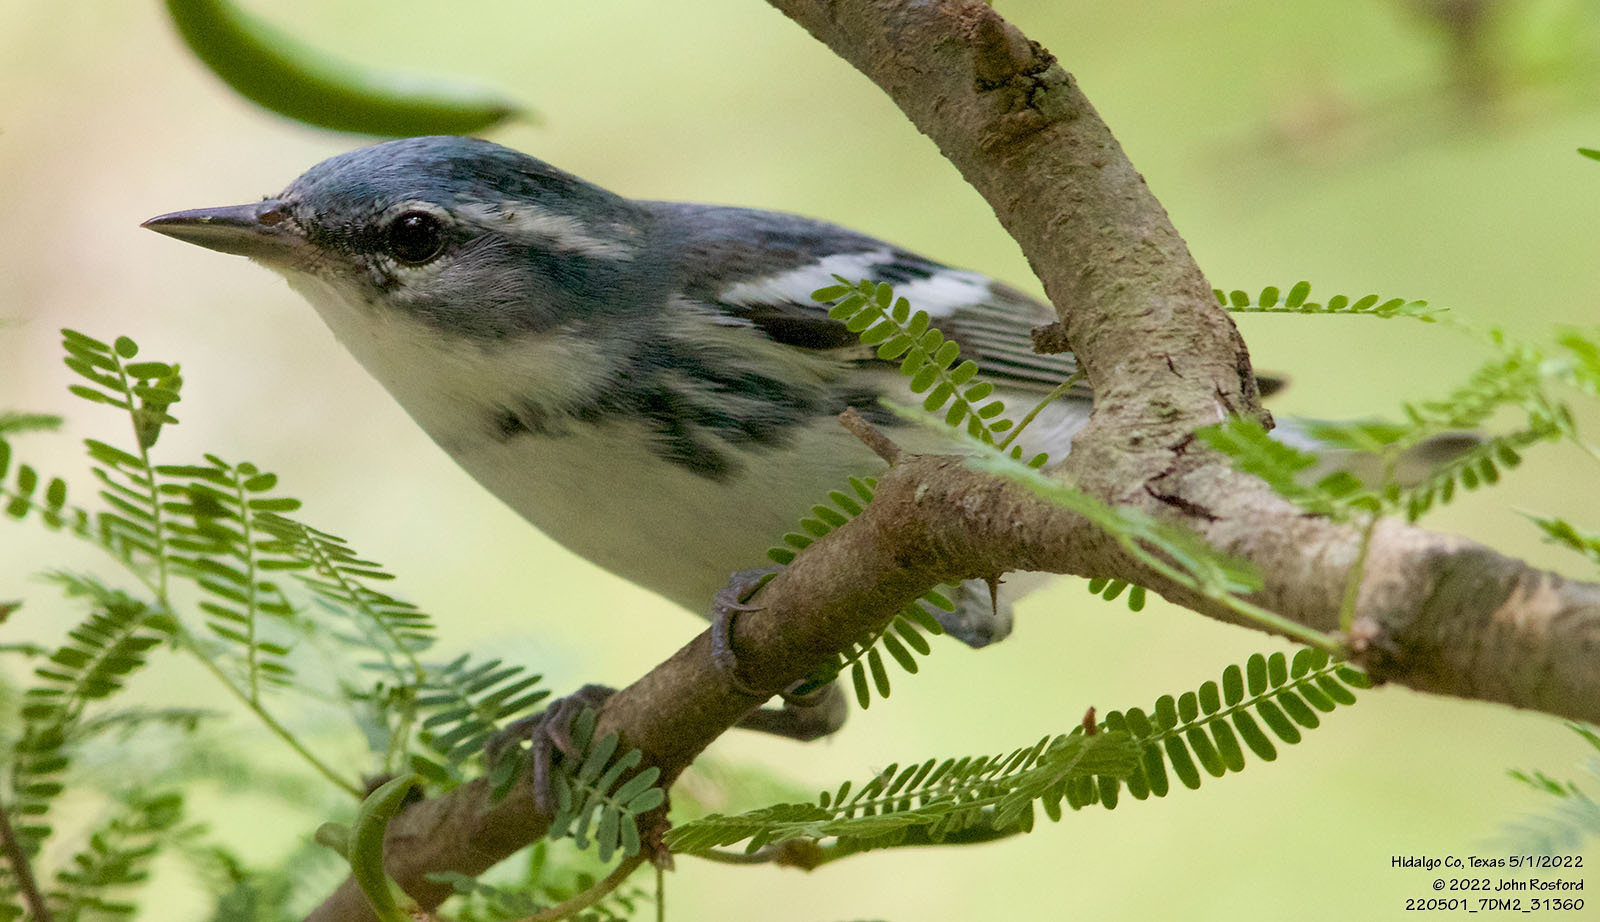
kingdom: Animalia
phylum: Chordata
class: Aves
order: Passeriformes
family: Parulidae
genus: Setophaga
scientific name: Setophaga cerulea
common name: Cerulean warbler
